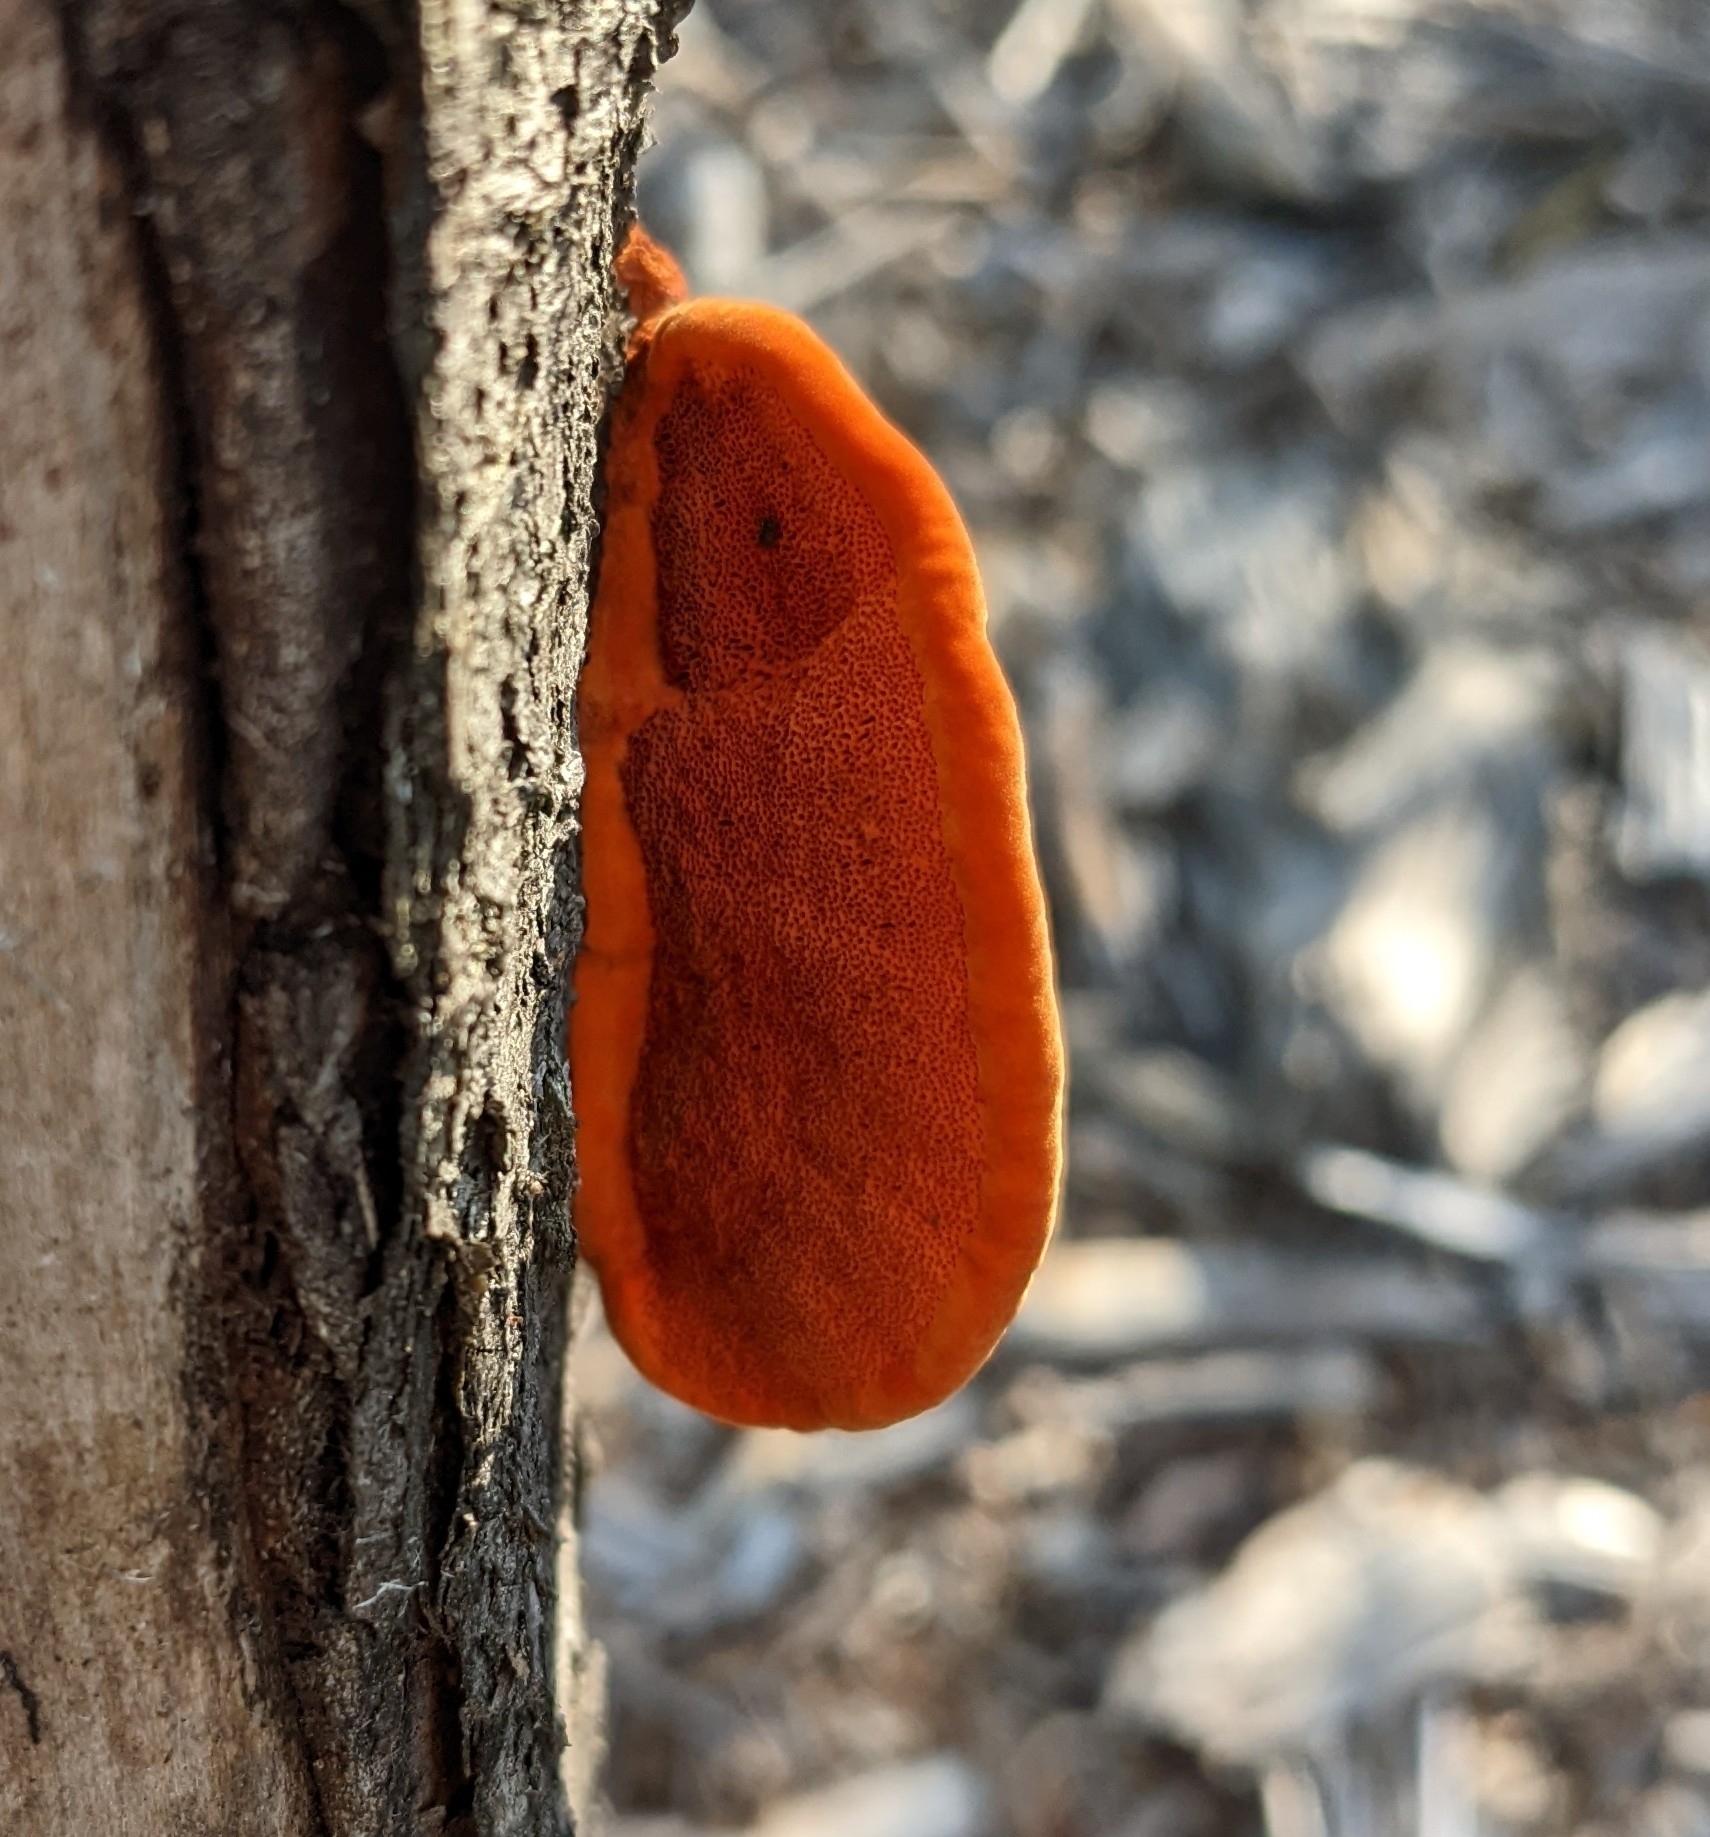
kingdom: Fungi
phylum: Basidiomycota
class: Agaricomycetes
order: Polyporales
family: Polyporaceae
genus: Trametes
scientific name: Trametes cinnabarina
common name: Northern cinnabar polypore
